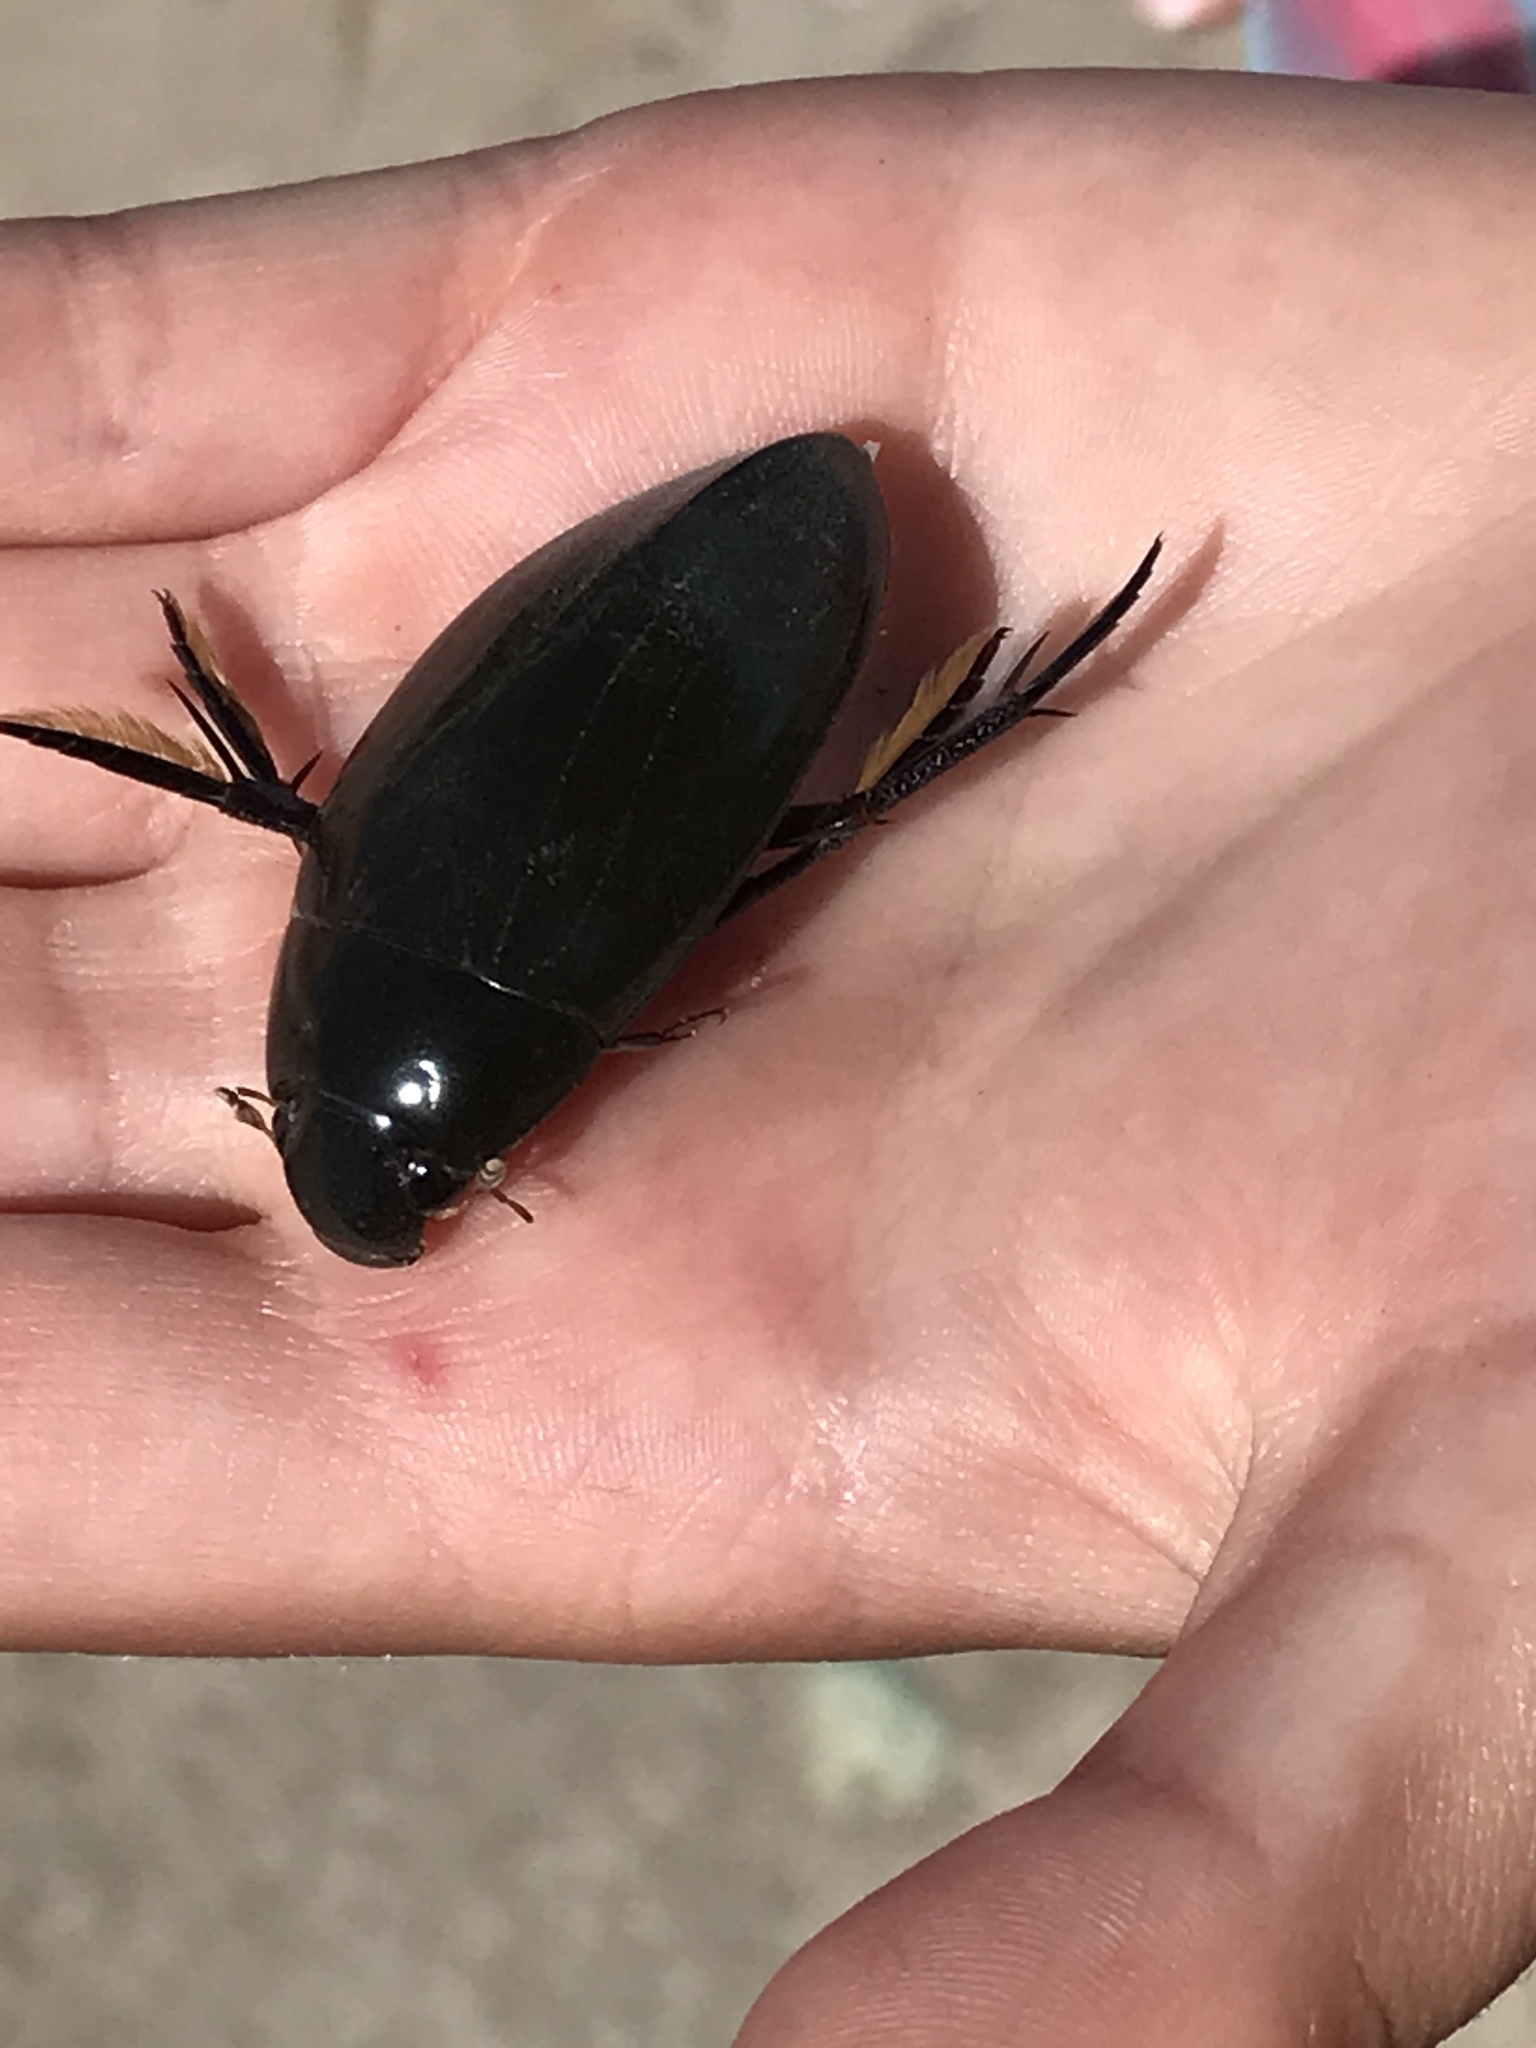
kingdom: Animalia
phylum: Arthropoda
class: Insecta
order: Coleoptera
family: Hydrophilidae
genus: Hydrophilus
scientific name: Hydrophilus triangularis
